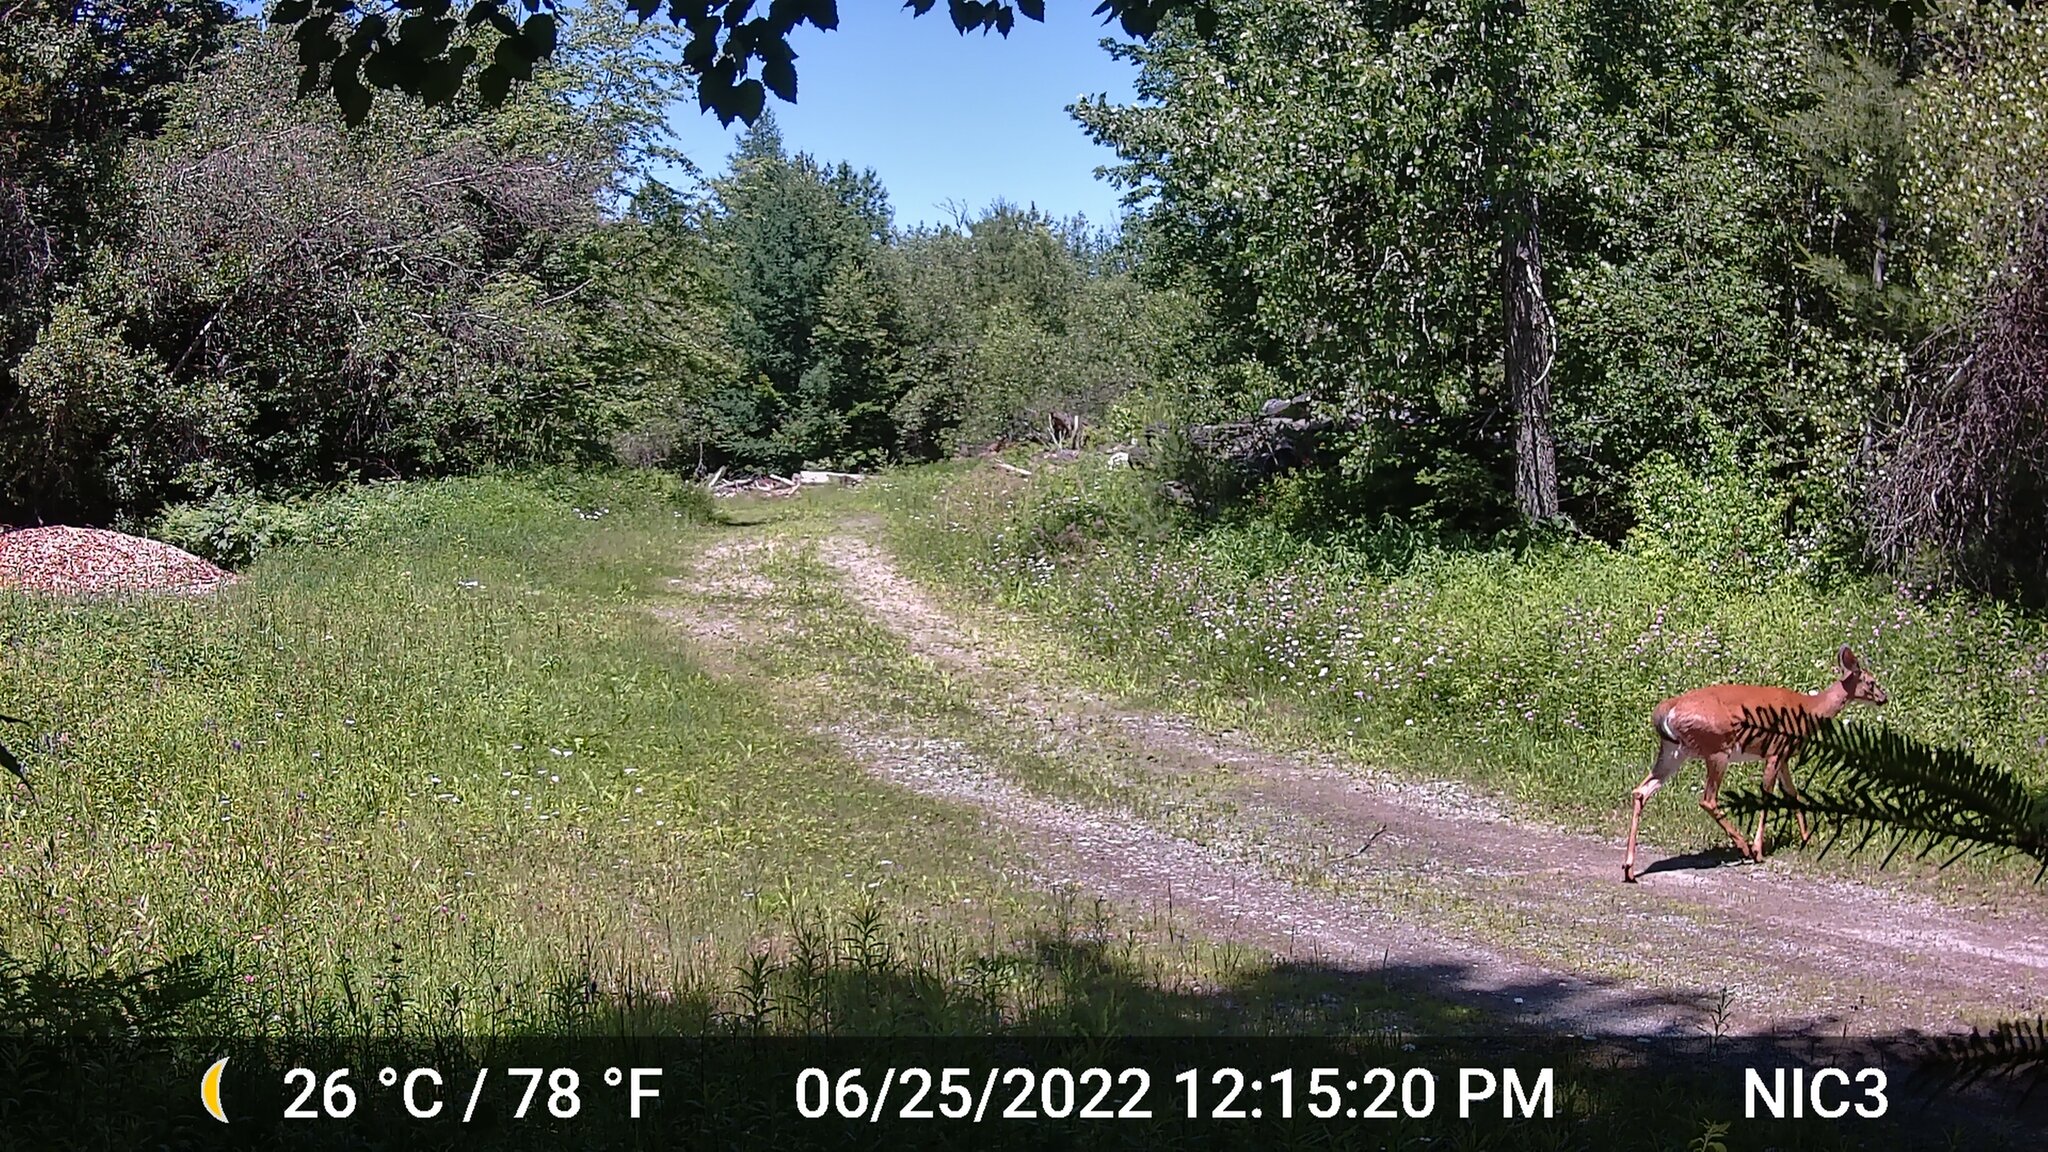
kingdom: Animalia
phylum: Chordata
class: Mammalia
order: Artiodactyla
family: Cervidae
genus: Odocoileus
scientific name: Odocoileus virginianus
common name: White-tailed deer
